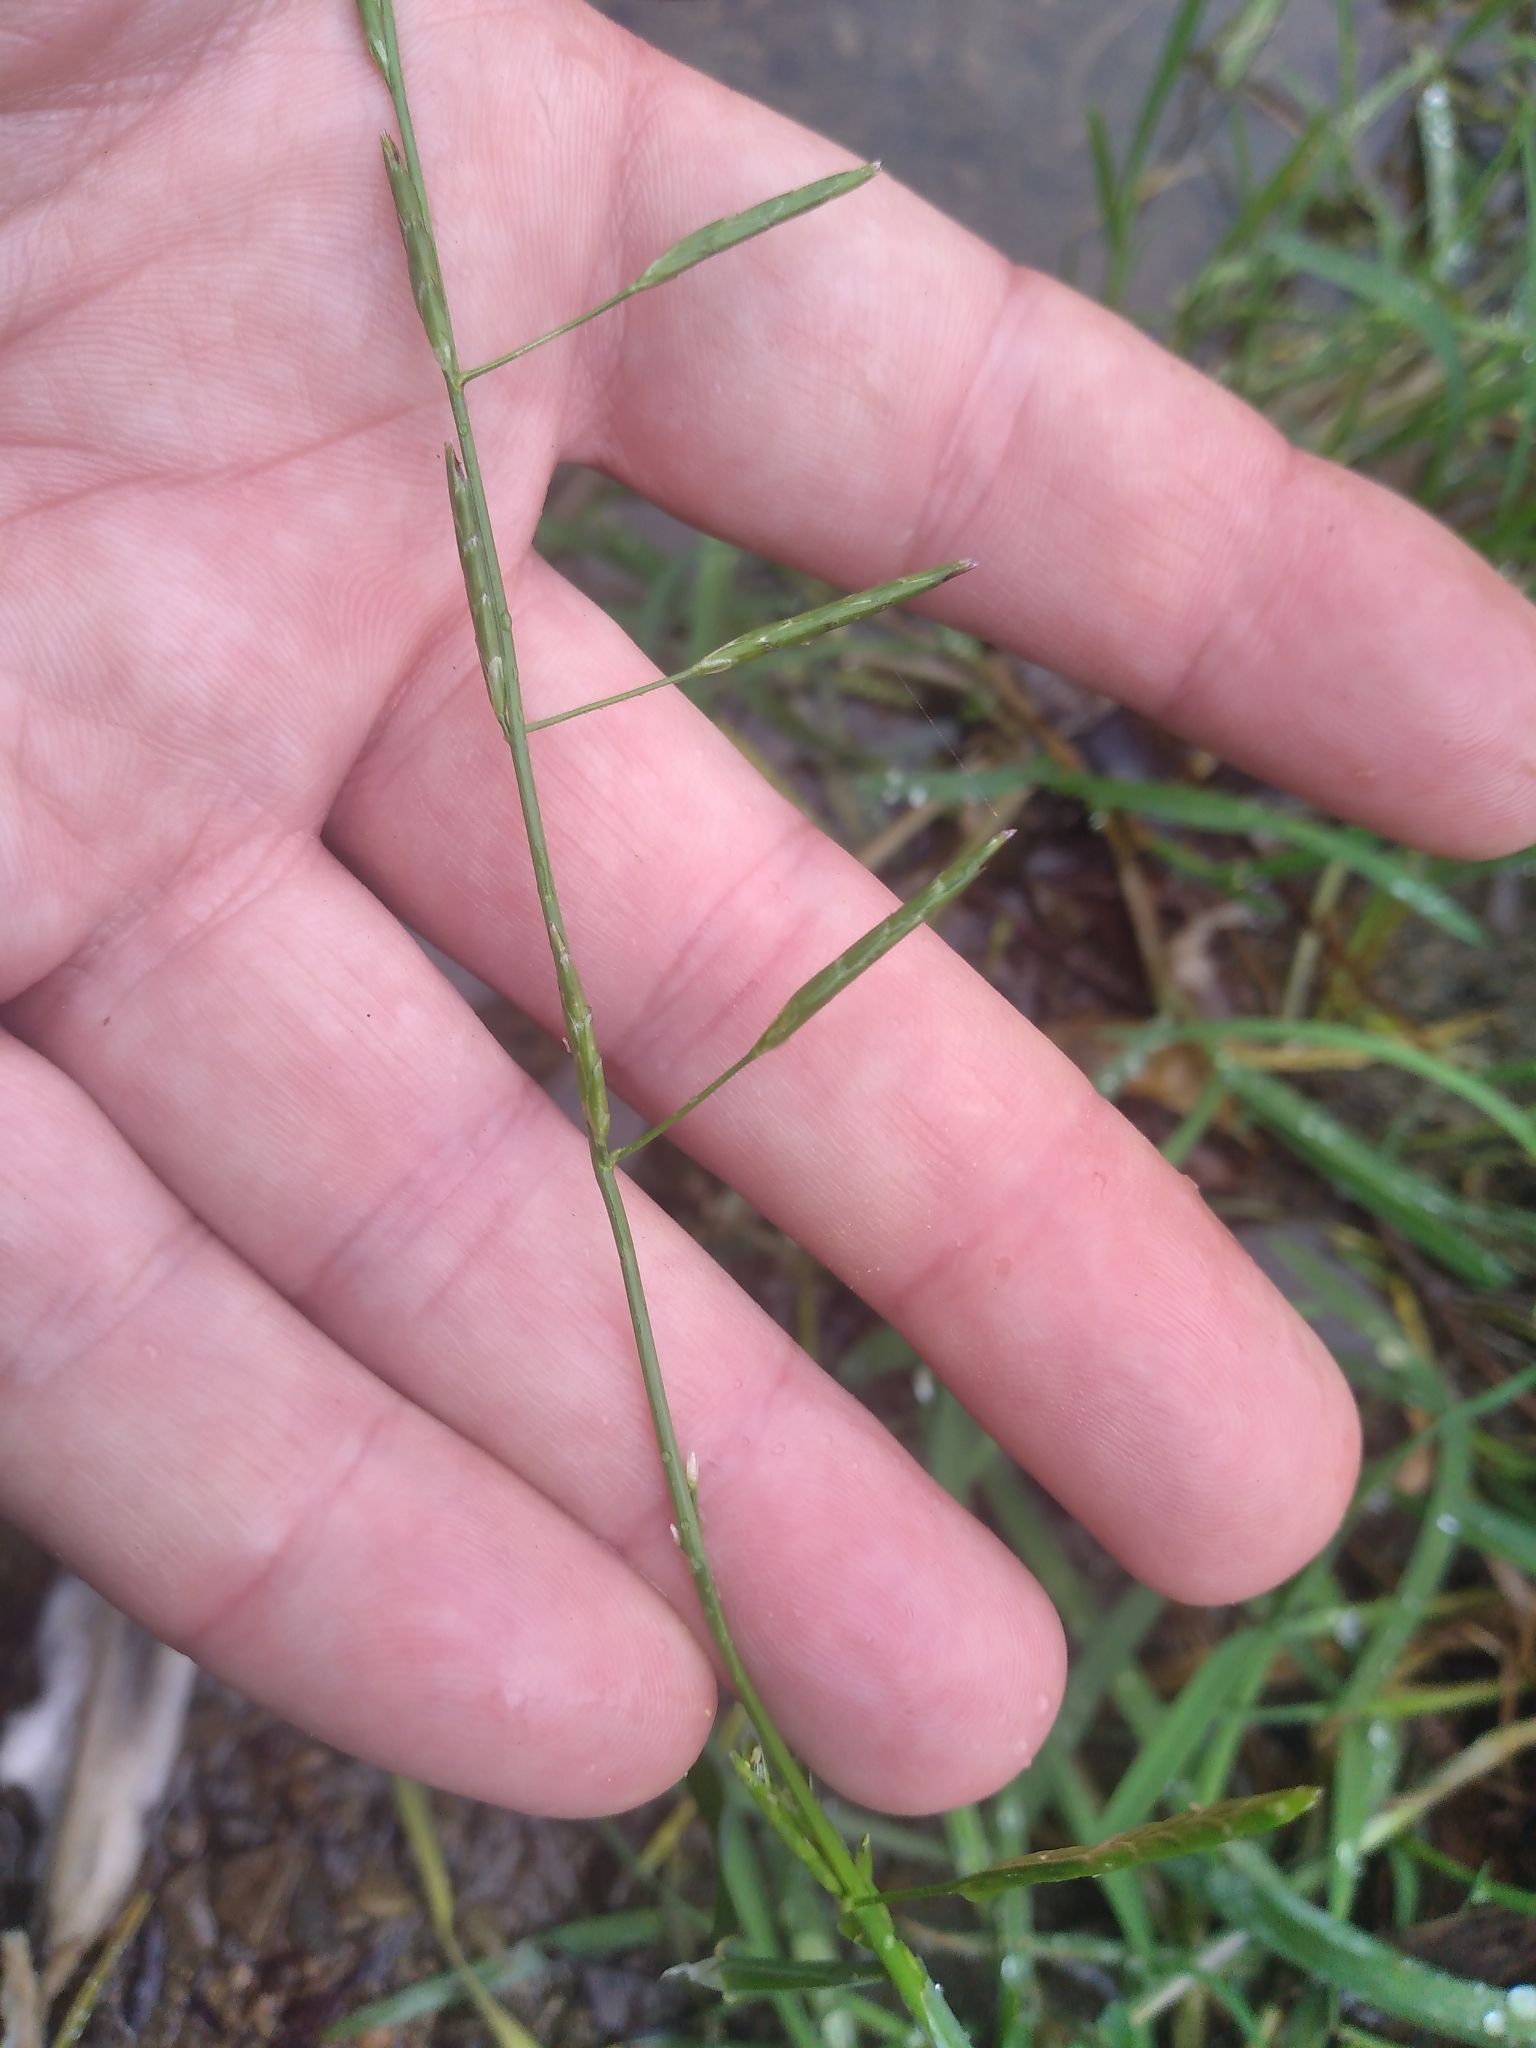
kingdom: Plantae
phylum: Tracheophyta
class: Liliopsida
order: Poales
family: Poaceae
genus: Glyceria
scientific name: Glyceria fluitans
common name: Floating sweet-grass
